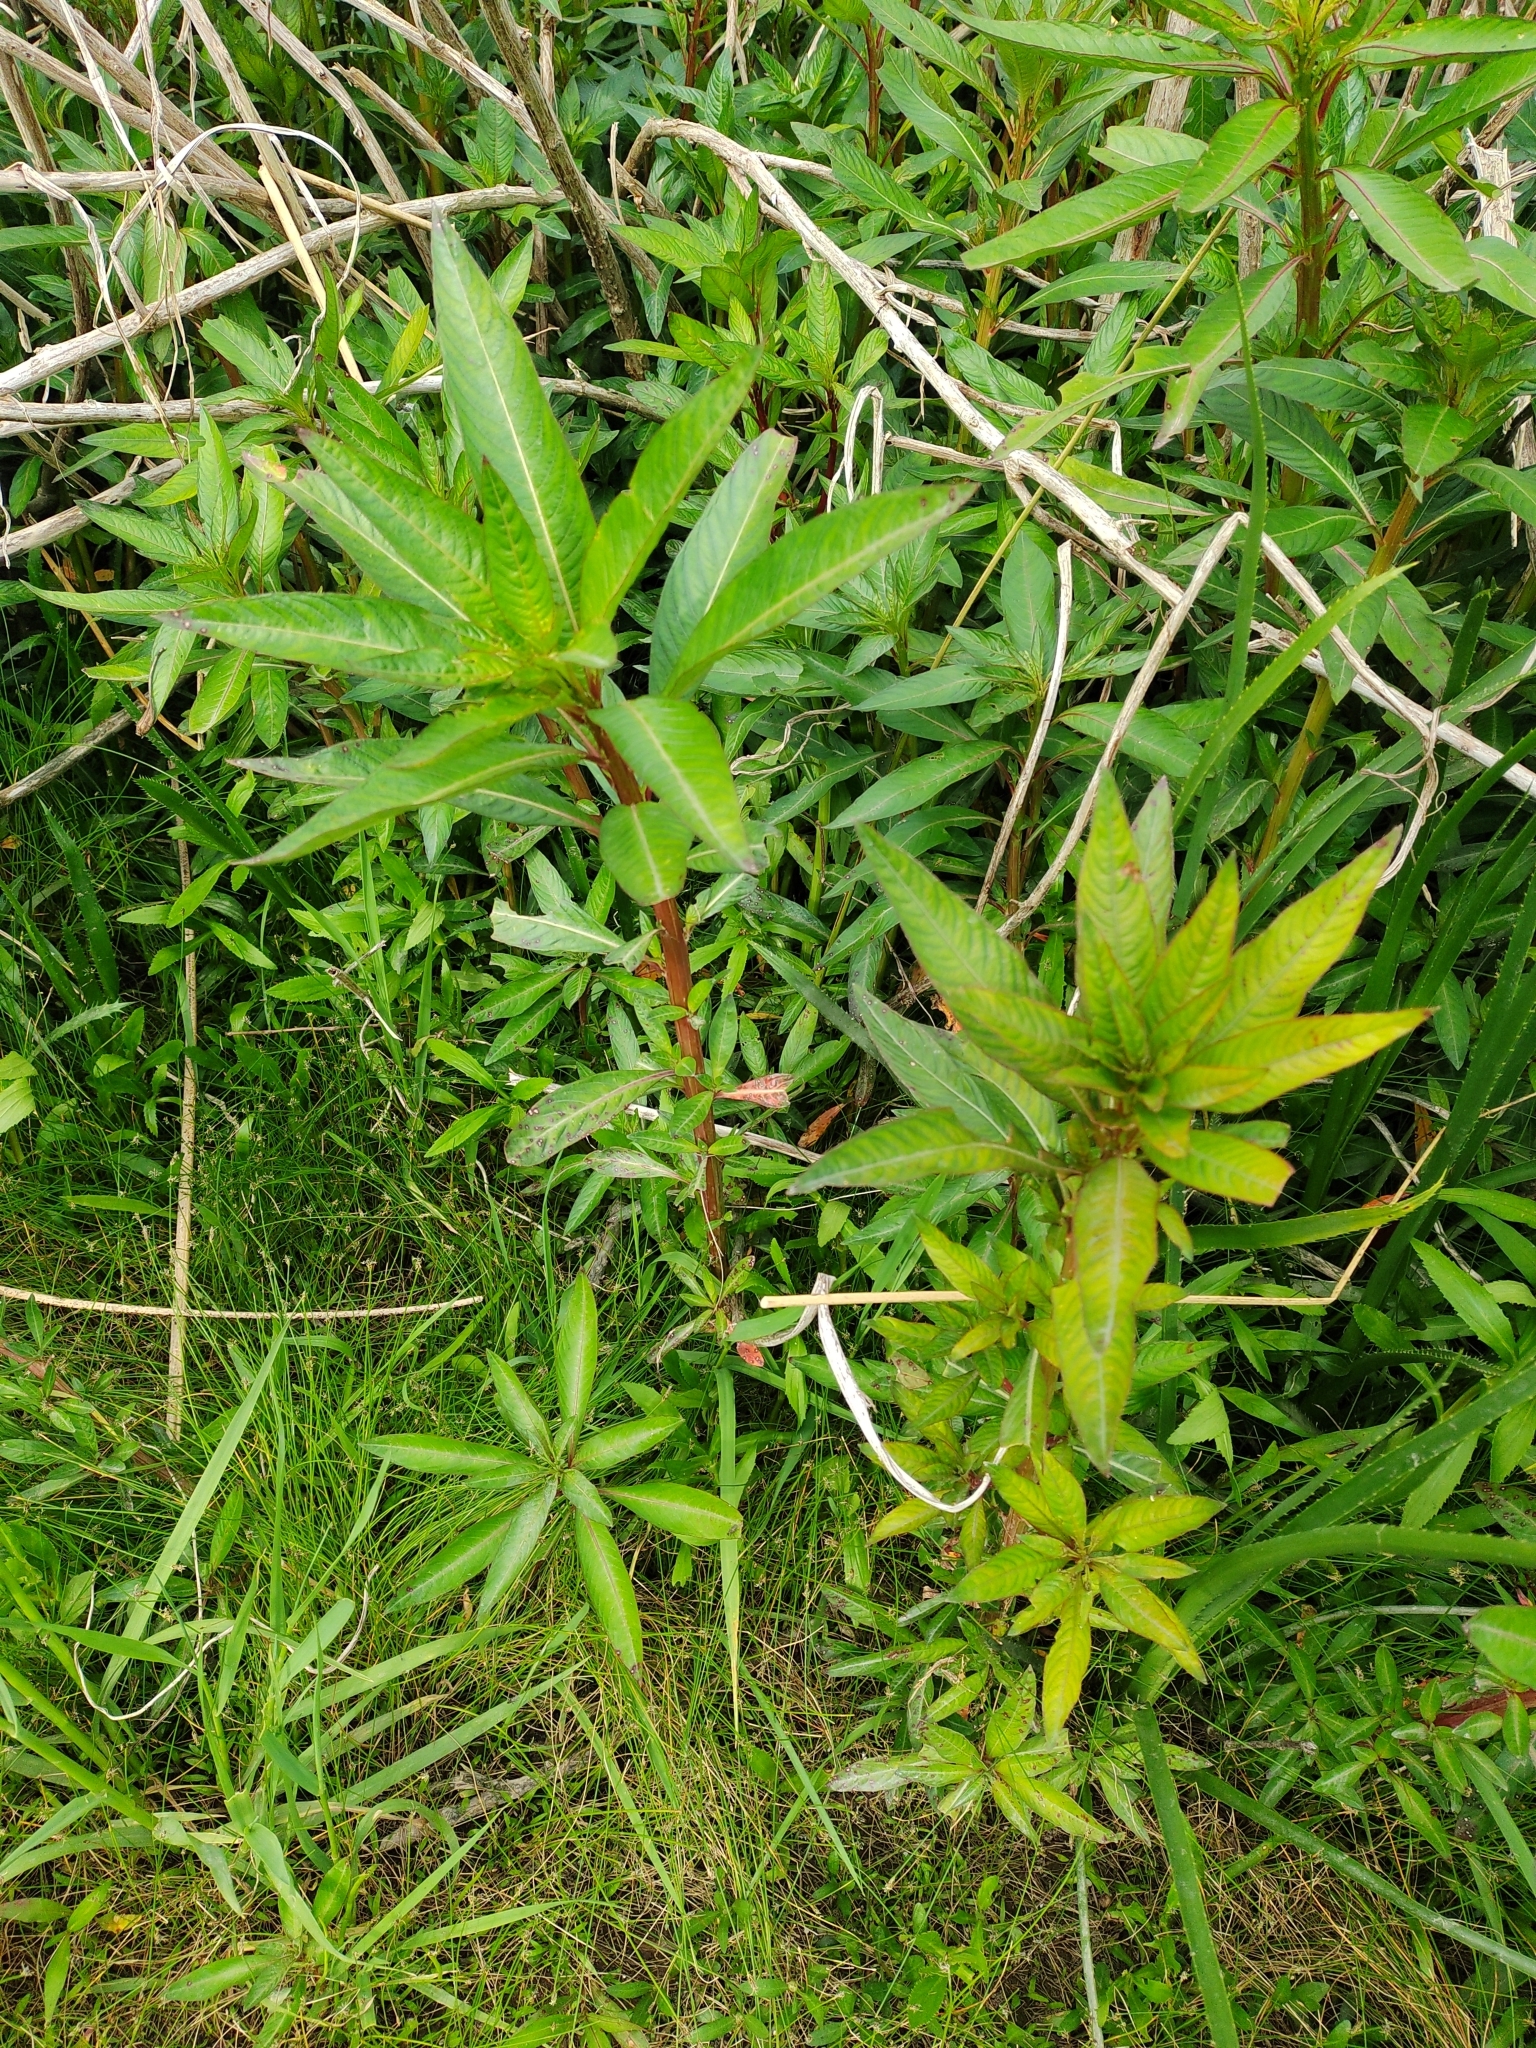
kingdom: Plantae
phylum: Tracheophyta
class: Magnoliopsida
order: Myrtales
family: Onagraceae
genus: Ludwigia
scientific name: Ludwigia elegans
